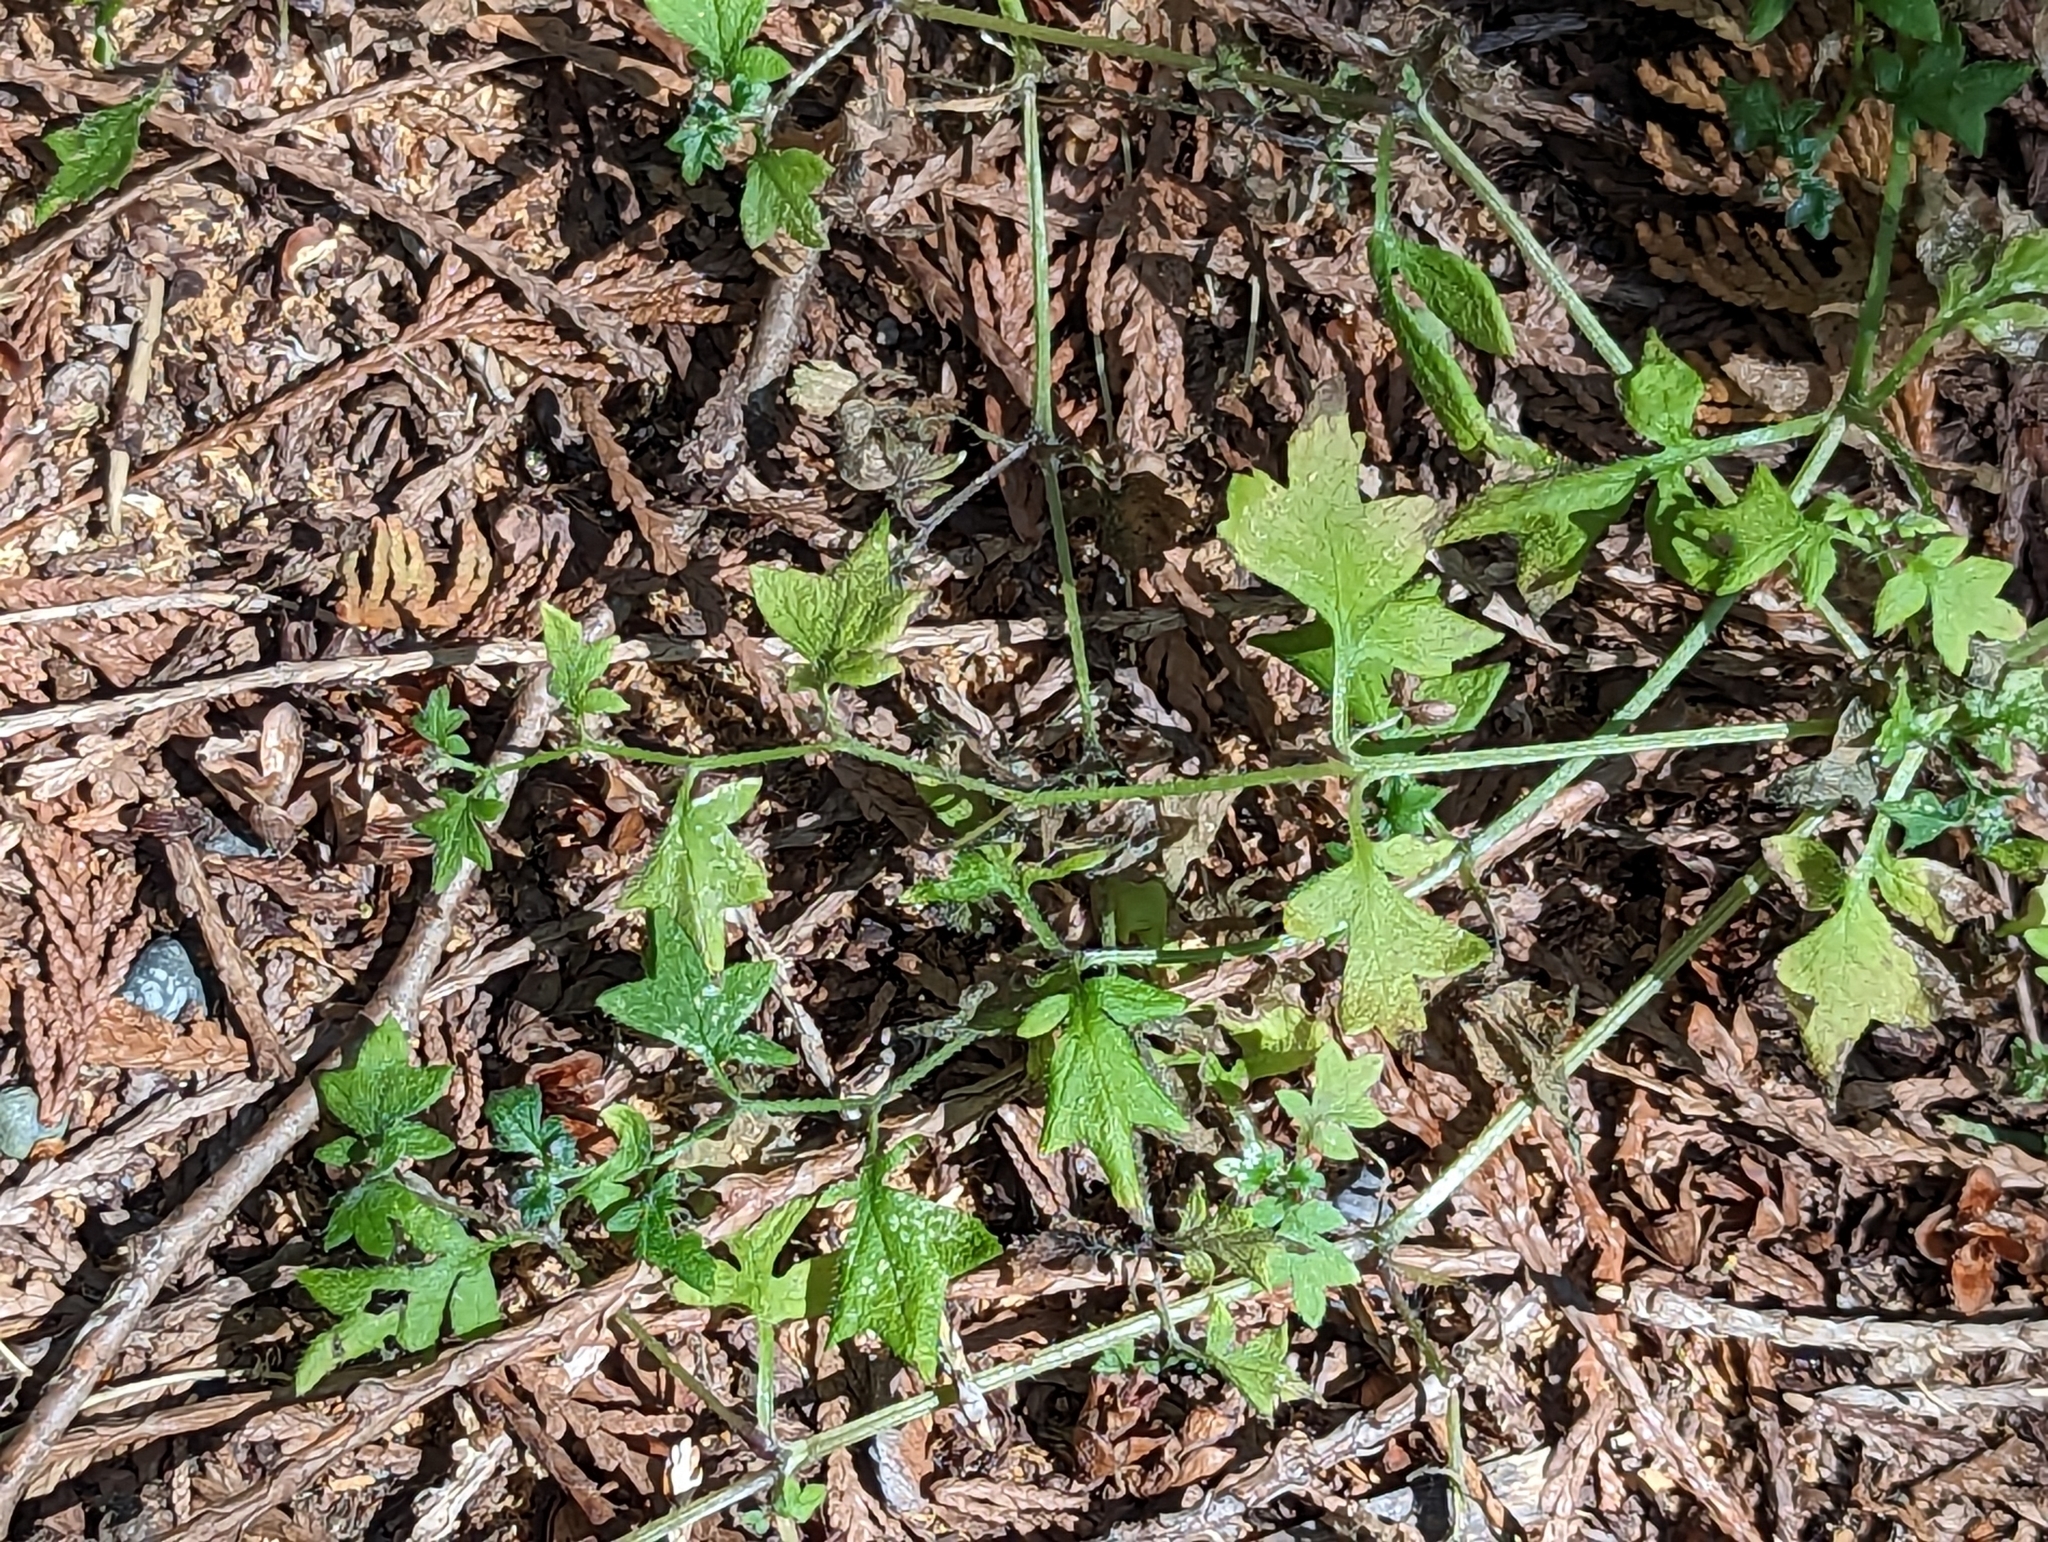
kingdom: Plantae
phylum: Tracheophyta
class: Magnoliopsida
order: Boraginales
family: Hydrophyllaceae
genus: Nemophila
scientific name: Nemophila parviflora
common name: Small-flowered baby-blue-eyes
